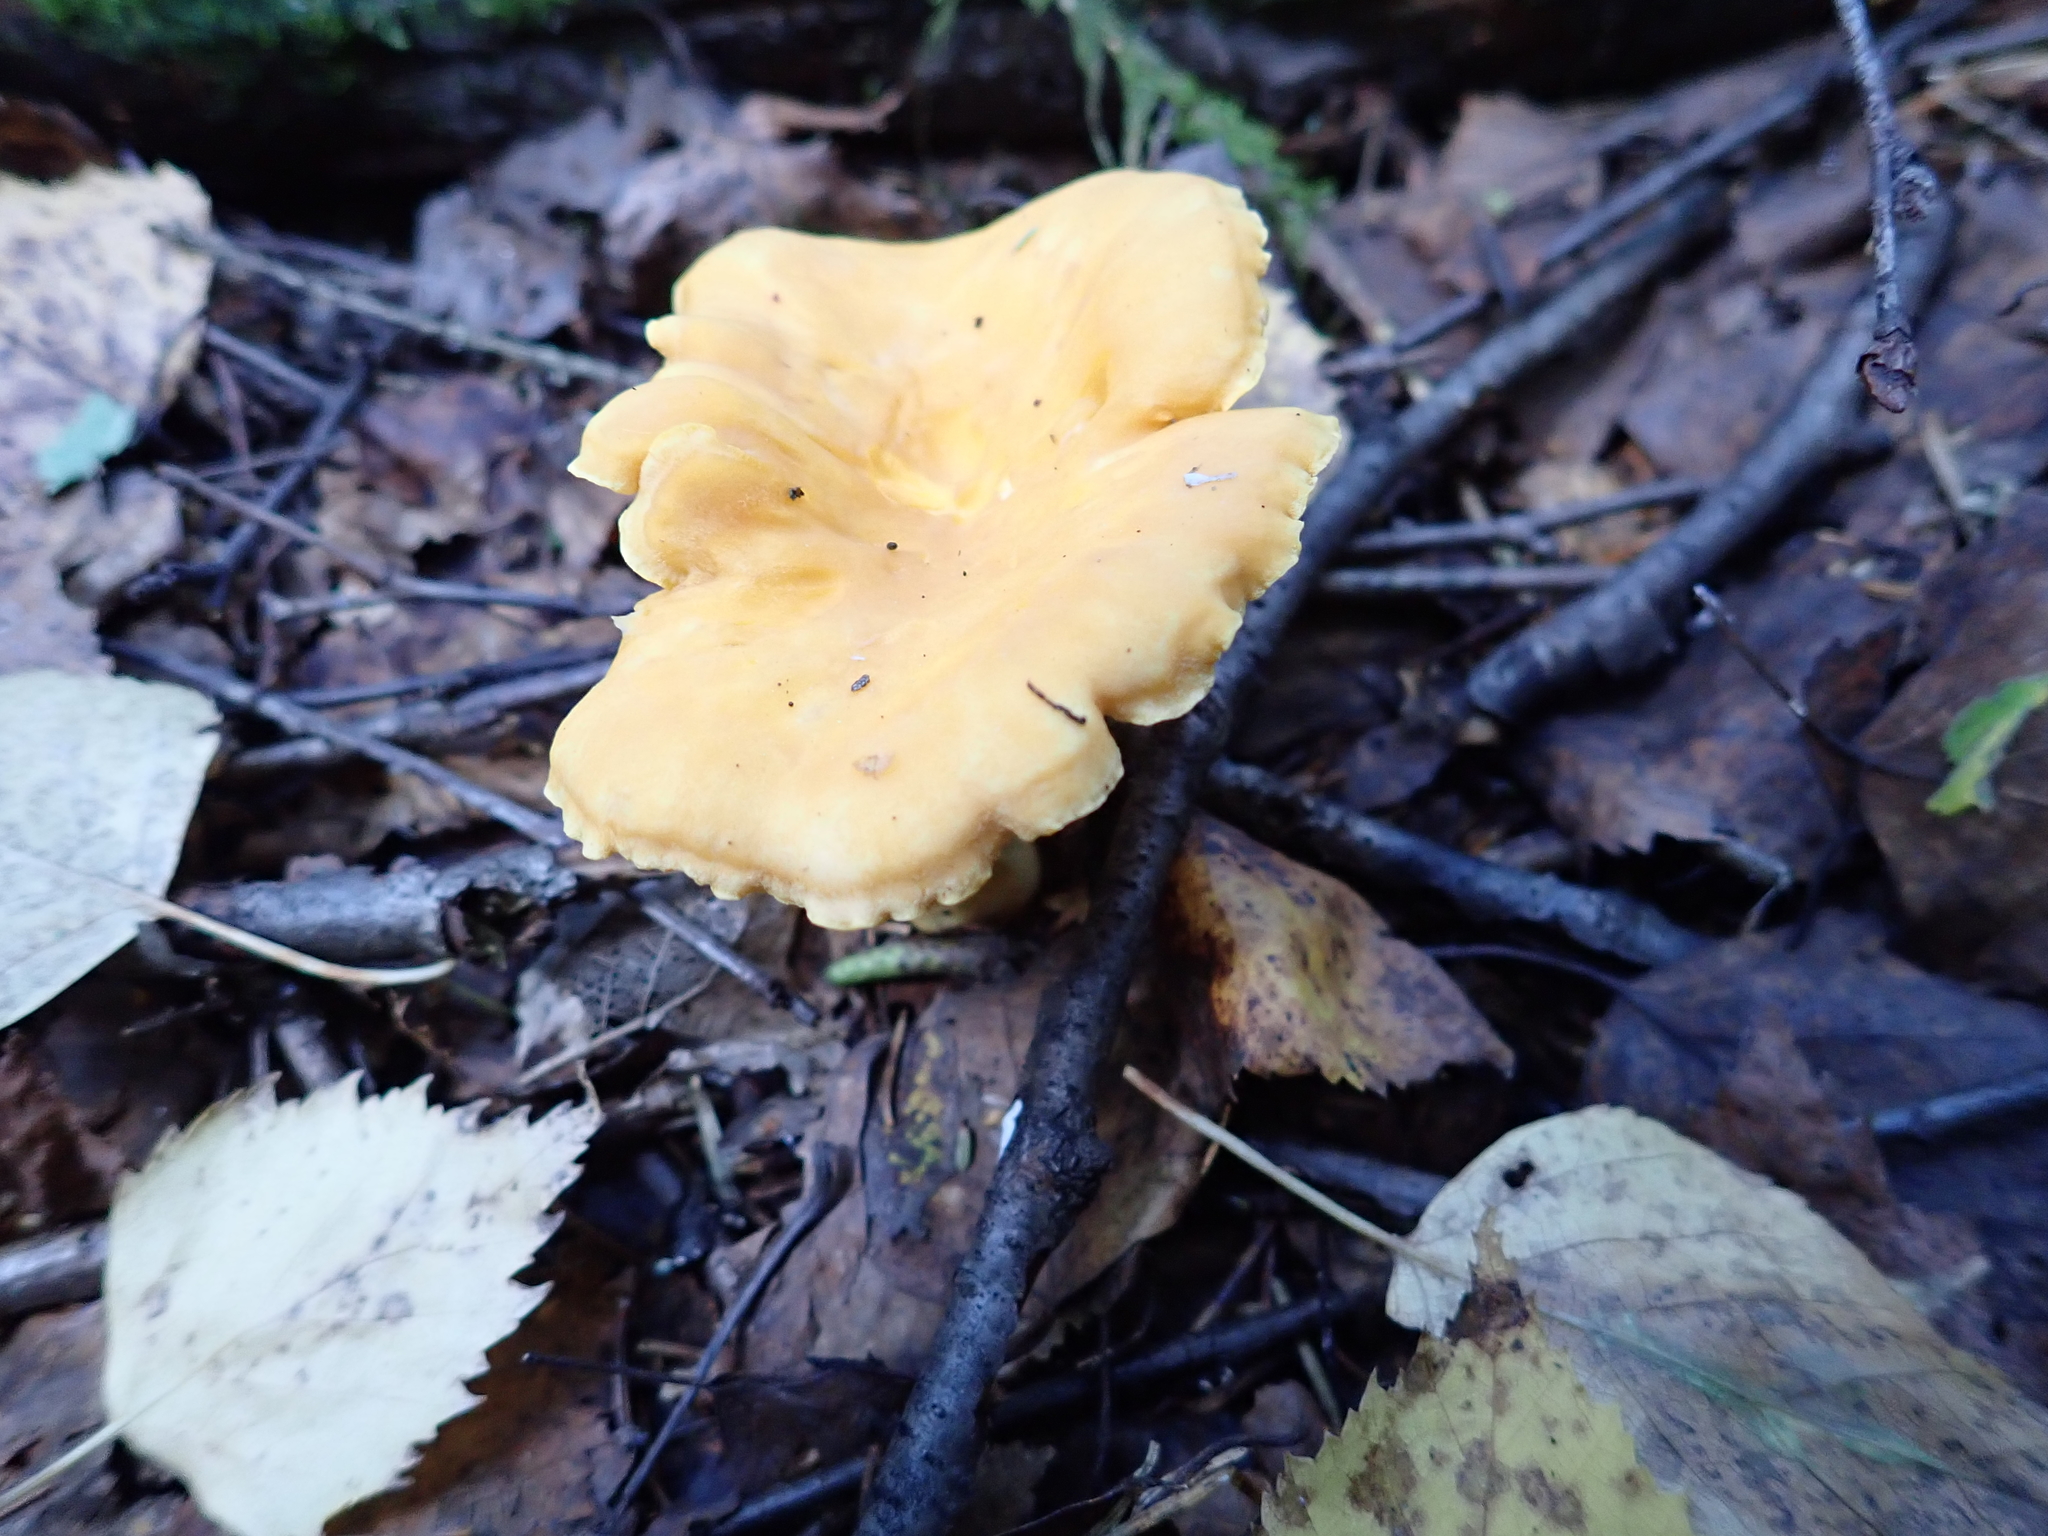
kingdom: Fungi
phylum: Basidiomycota
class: Agaricomycetes
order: Cantharellales
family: Hydnaceae
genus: Cantharellus
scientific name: Cantharellus cibarius
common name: Chanterelle
